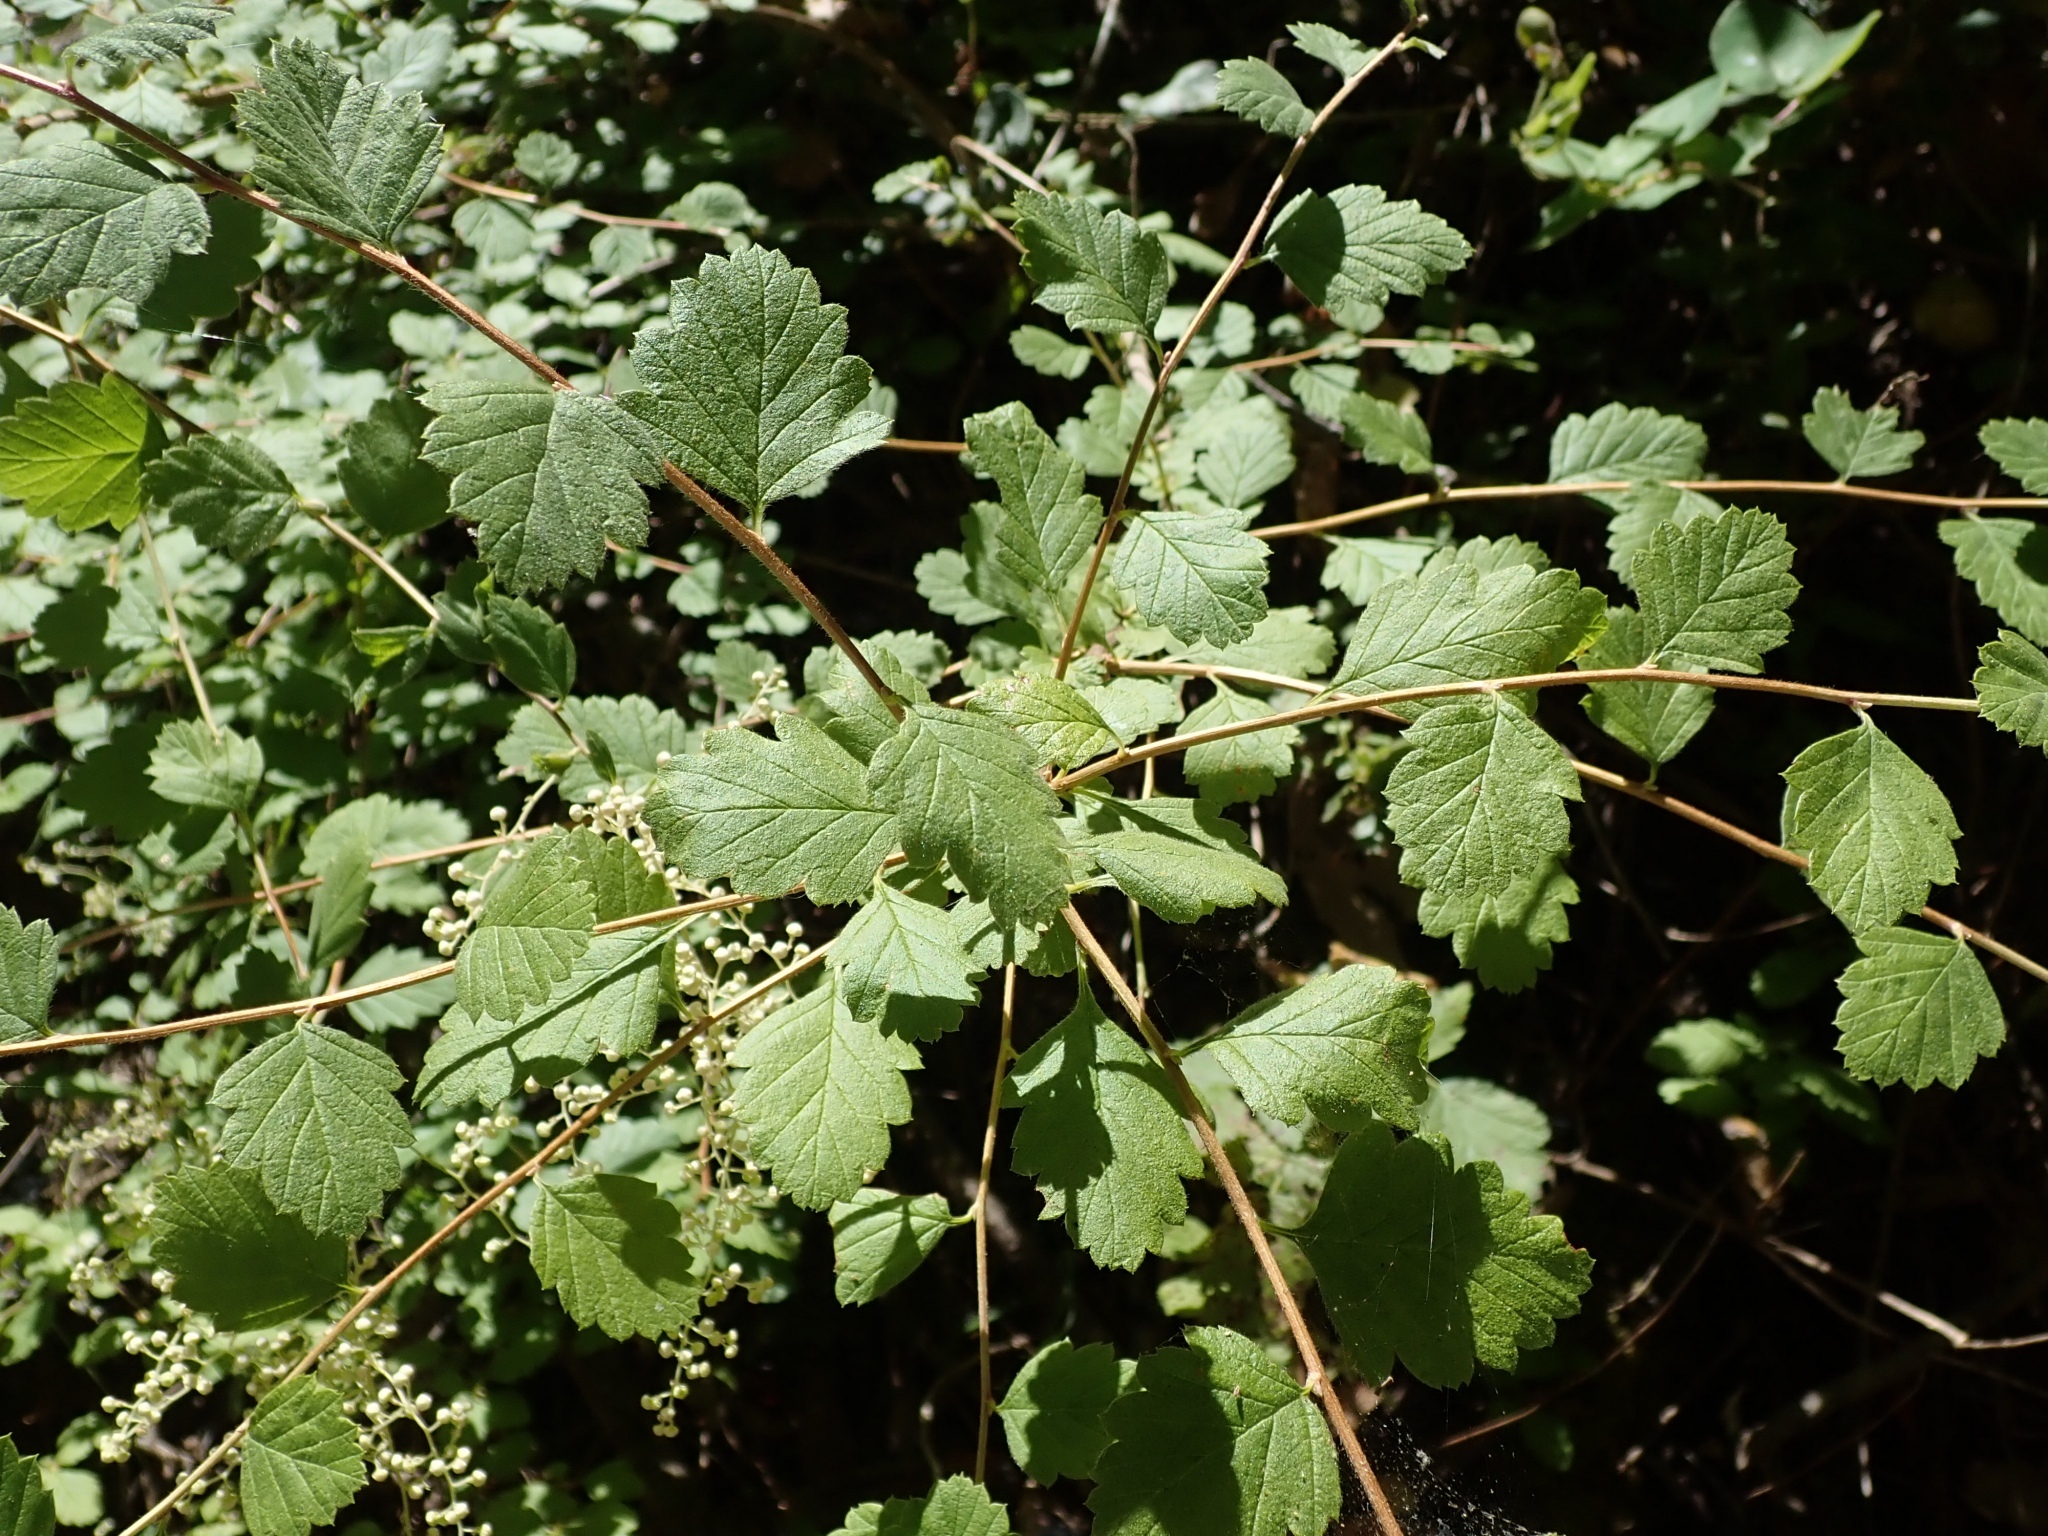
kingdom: Plantae
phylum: Tracheophyta
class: Magnoliopsida
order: Rosales
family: Rosaceae
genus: Holodiscus
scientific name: Holodiscus discolor
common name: Oceanspray
